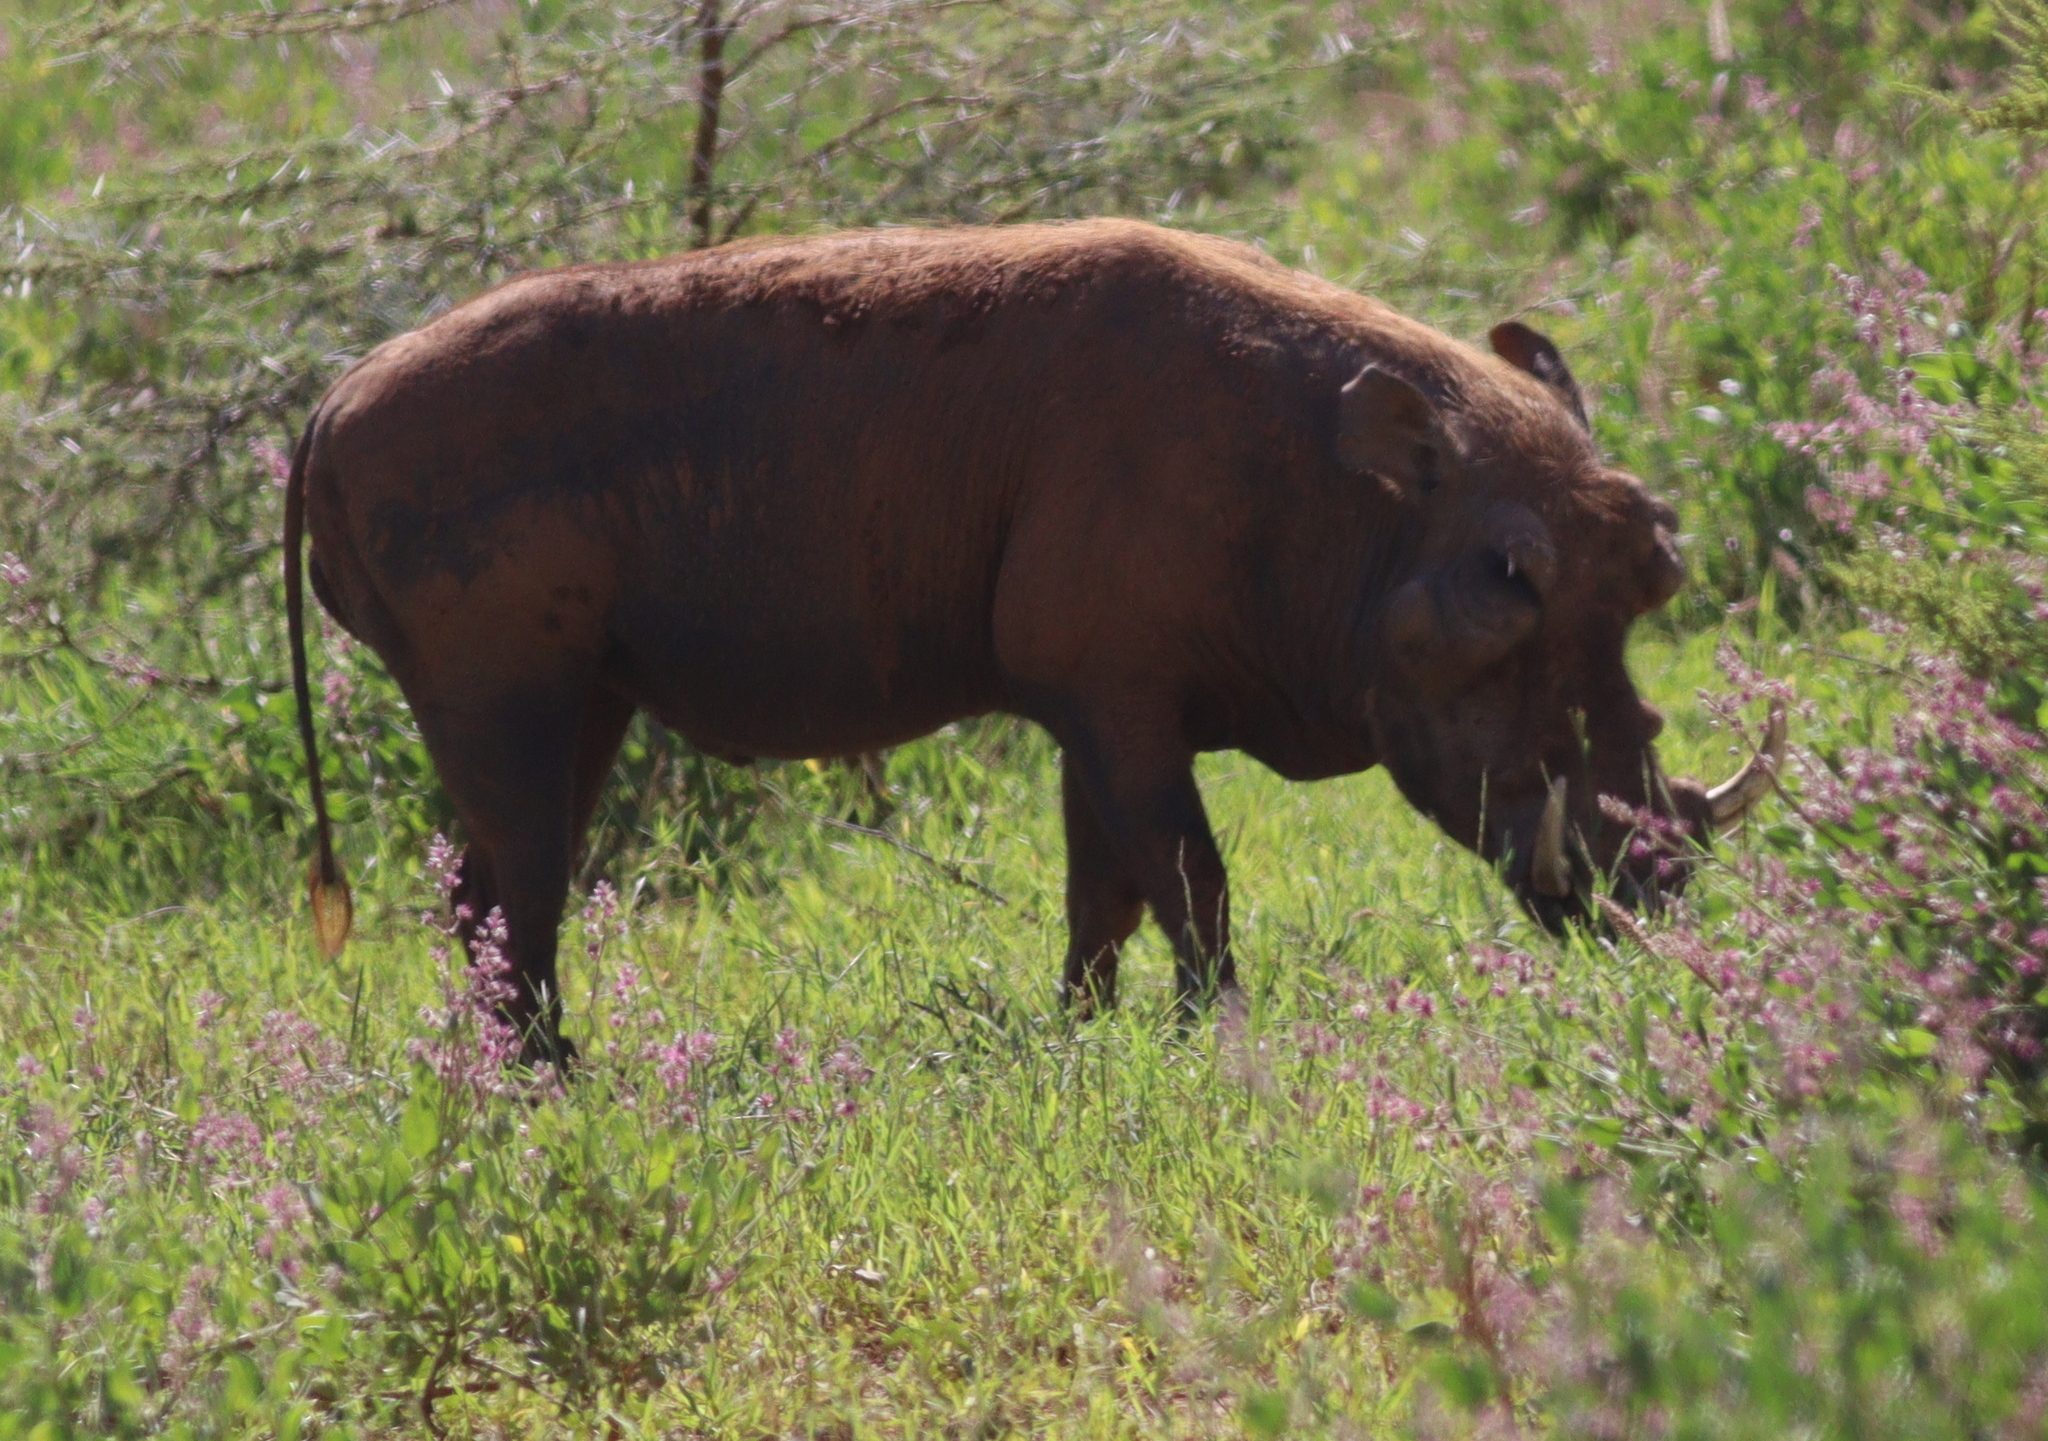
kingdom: Animalia
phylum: Chordata
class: Mammalia
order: Artiodactyla
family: Suidae
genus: Phacochoerus
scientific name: Phacochoerus aethiopicus
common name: Desert warthog
